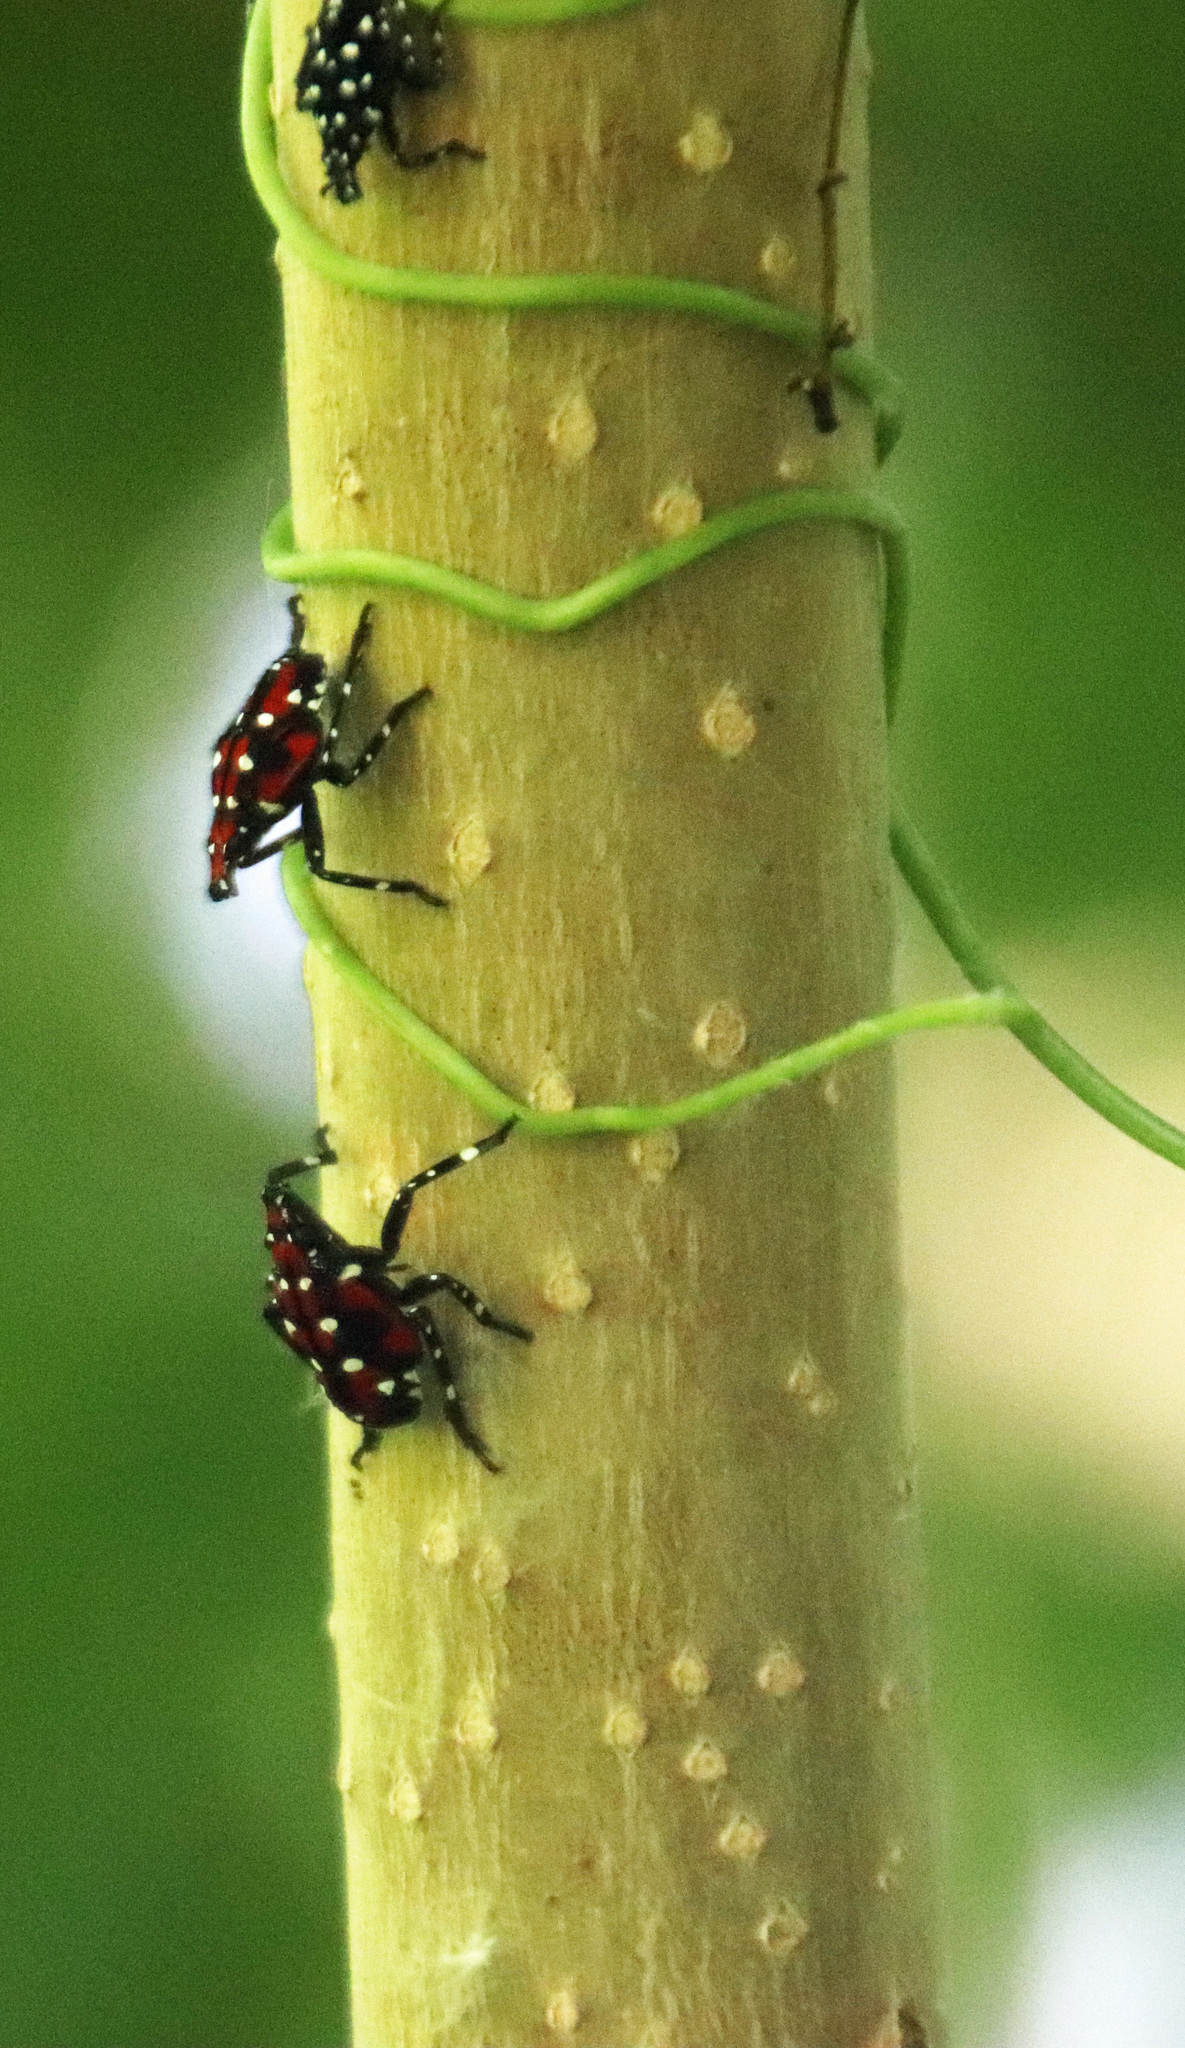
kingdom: Animalia
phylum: Arthropoda
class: Insecta
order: Hemiptera
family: Fulgoridae
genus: Lycorma
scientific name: Lycorma delicatula
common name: Spotted lanternfly
